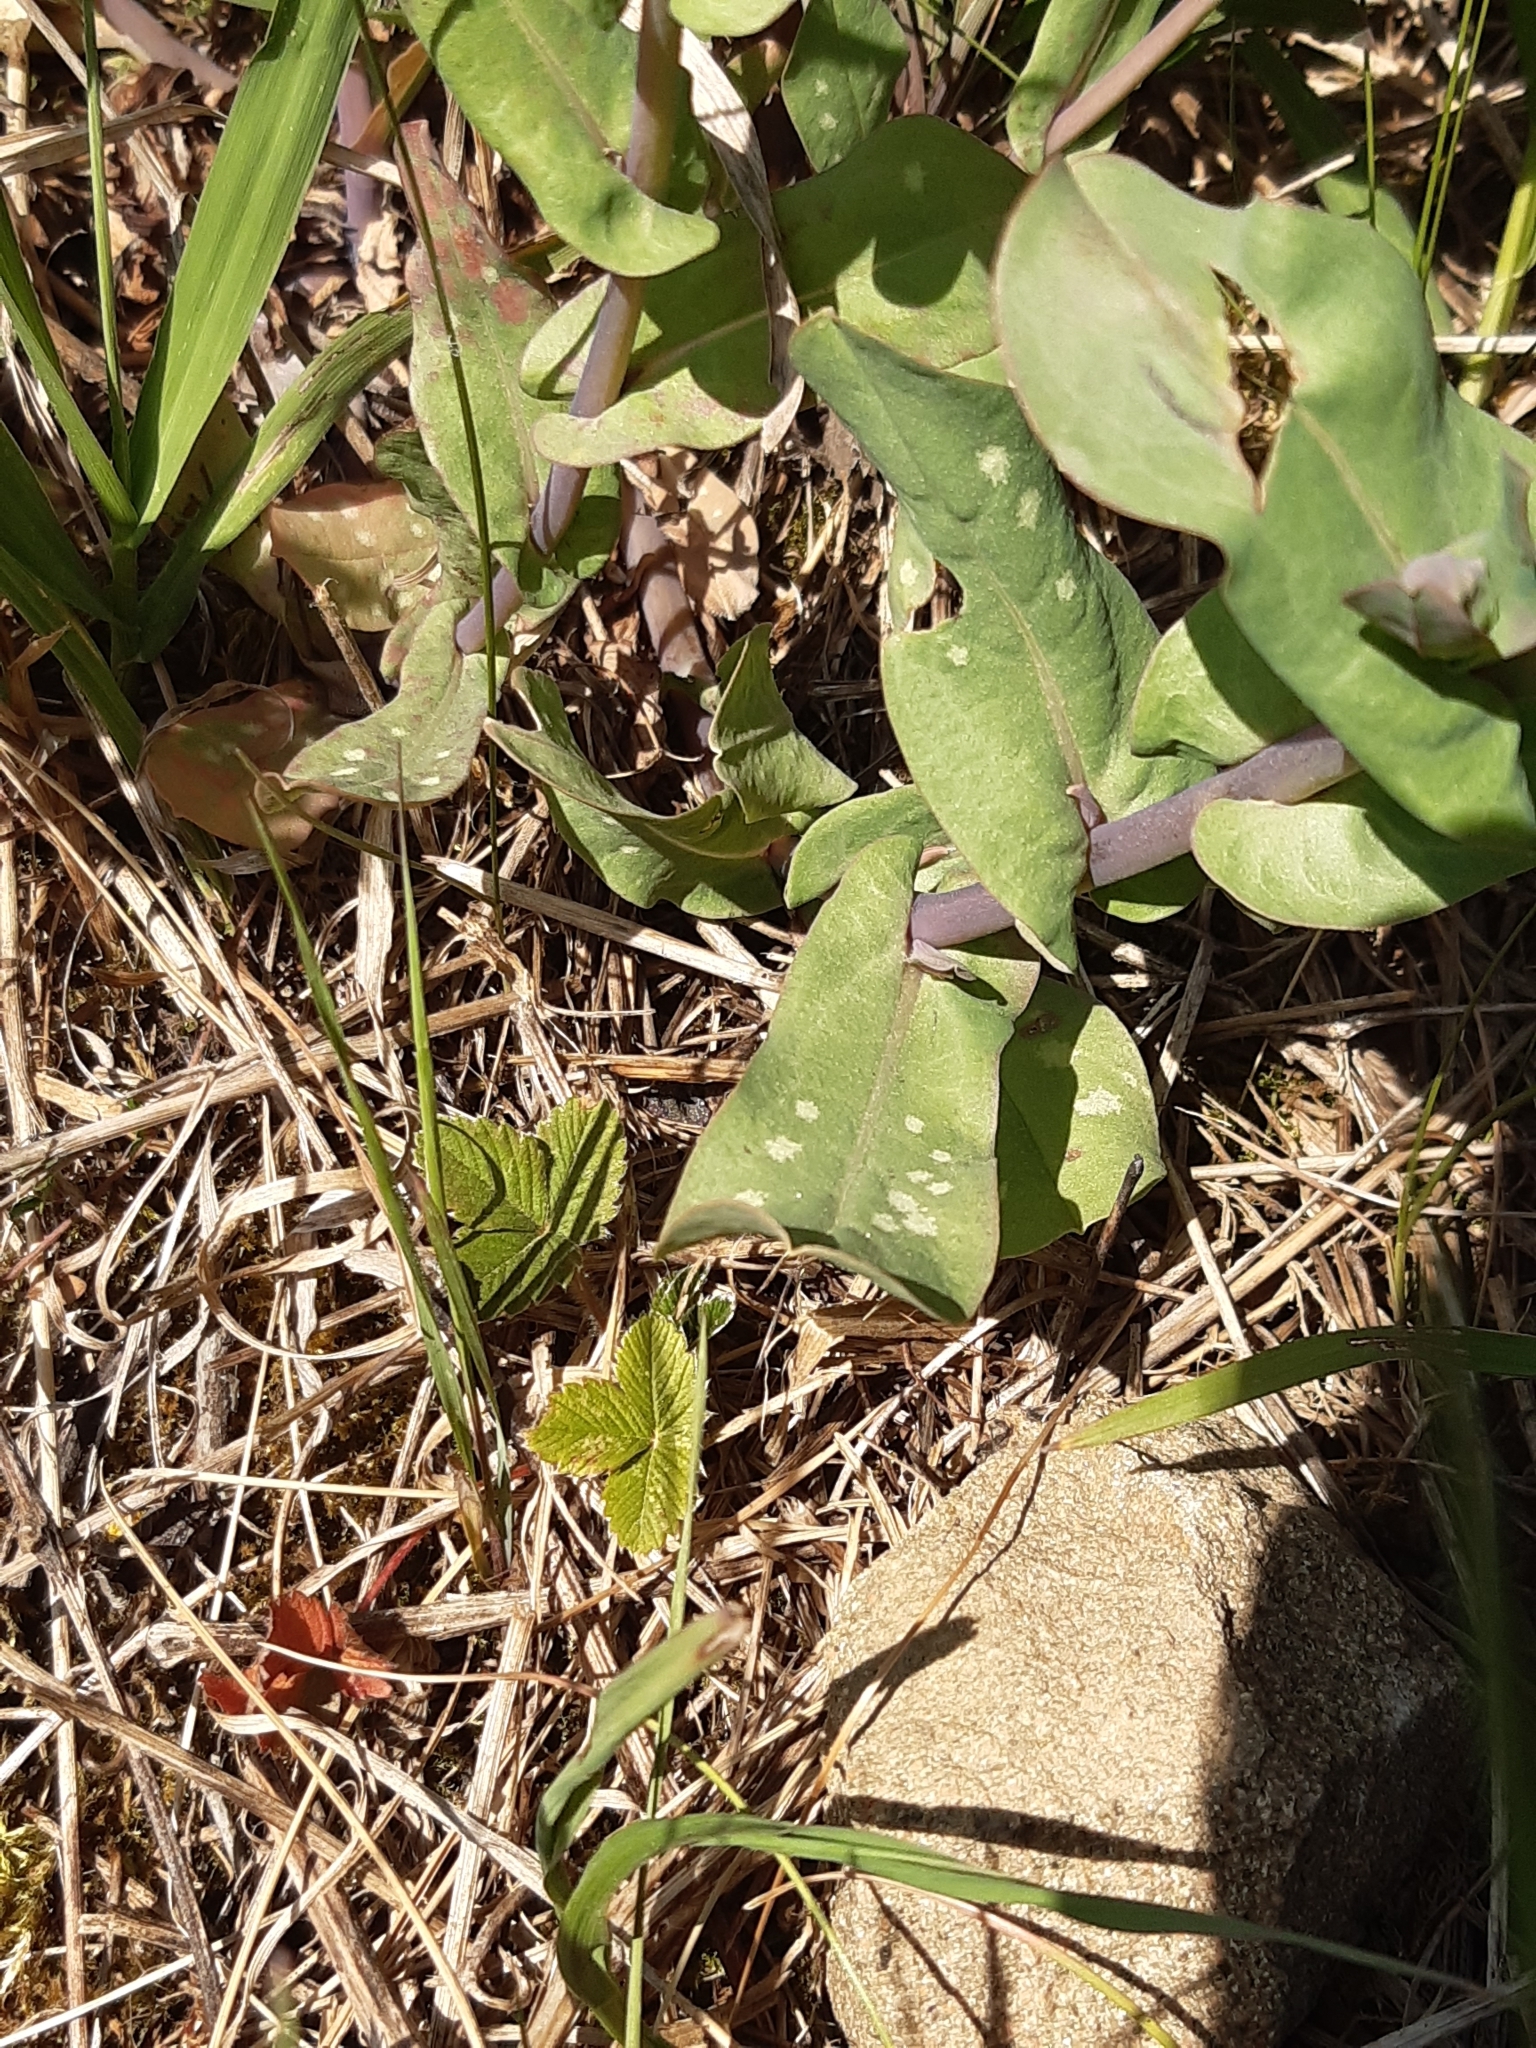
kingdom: Plantae
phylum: Tracheophyta
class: Magnoliopsida
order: Boraginales
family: Boraginaceae
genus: Cerinthe
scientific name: Cerinthe minor
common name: Lesser honeywort
